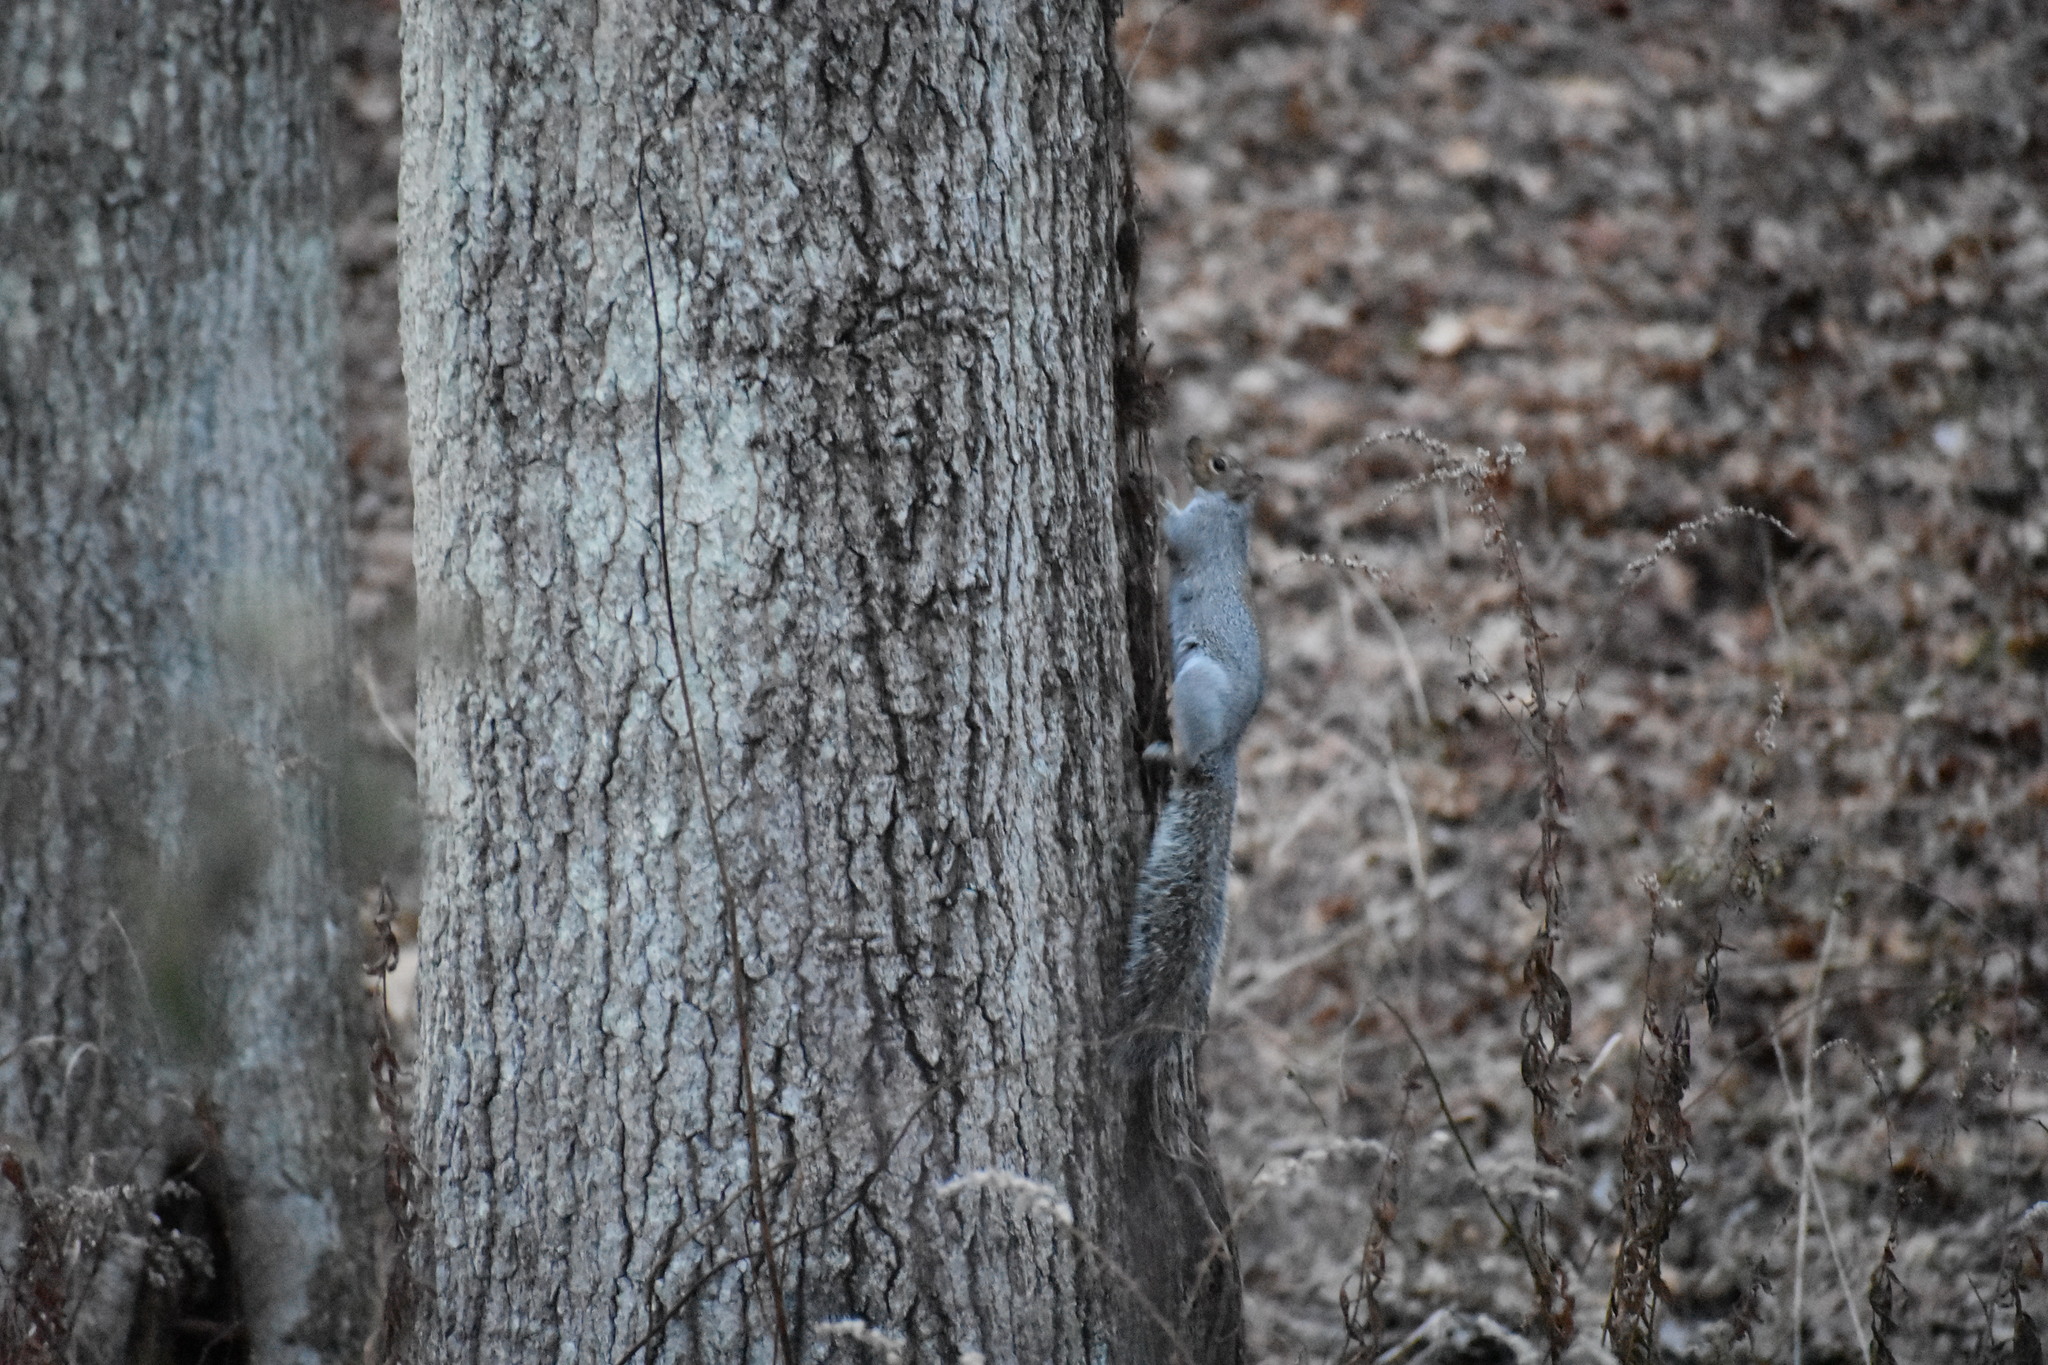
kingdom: Animalia
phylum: Chordata
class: Mammalia
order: Rodentia
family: Sciuridae
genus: Sciurus
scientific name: Sciurus carolinensis
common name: Eastern gray squirrel
